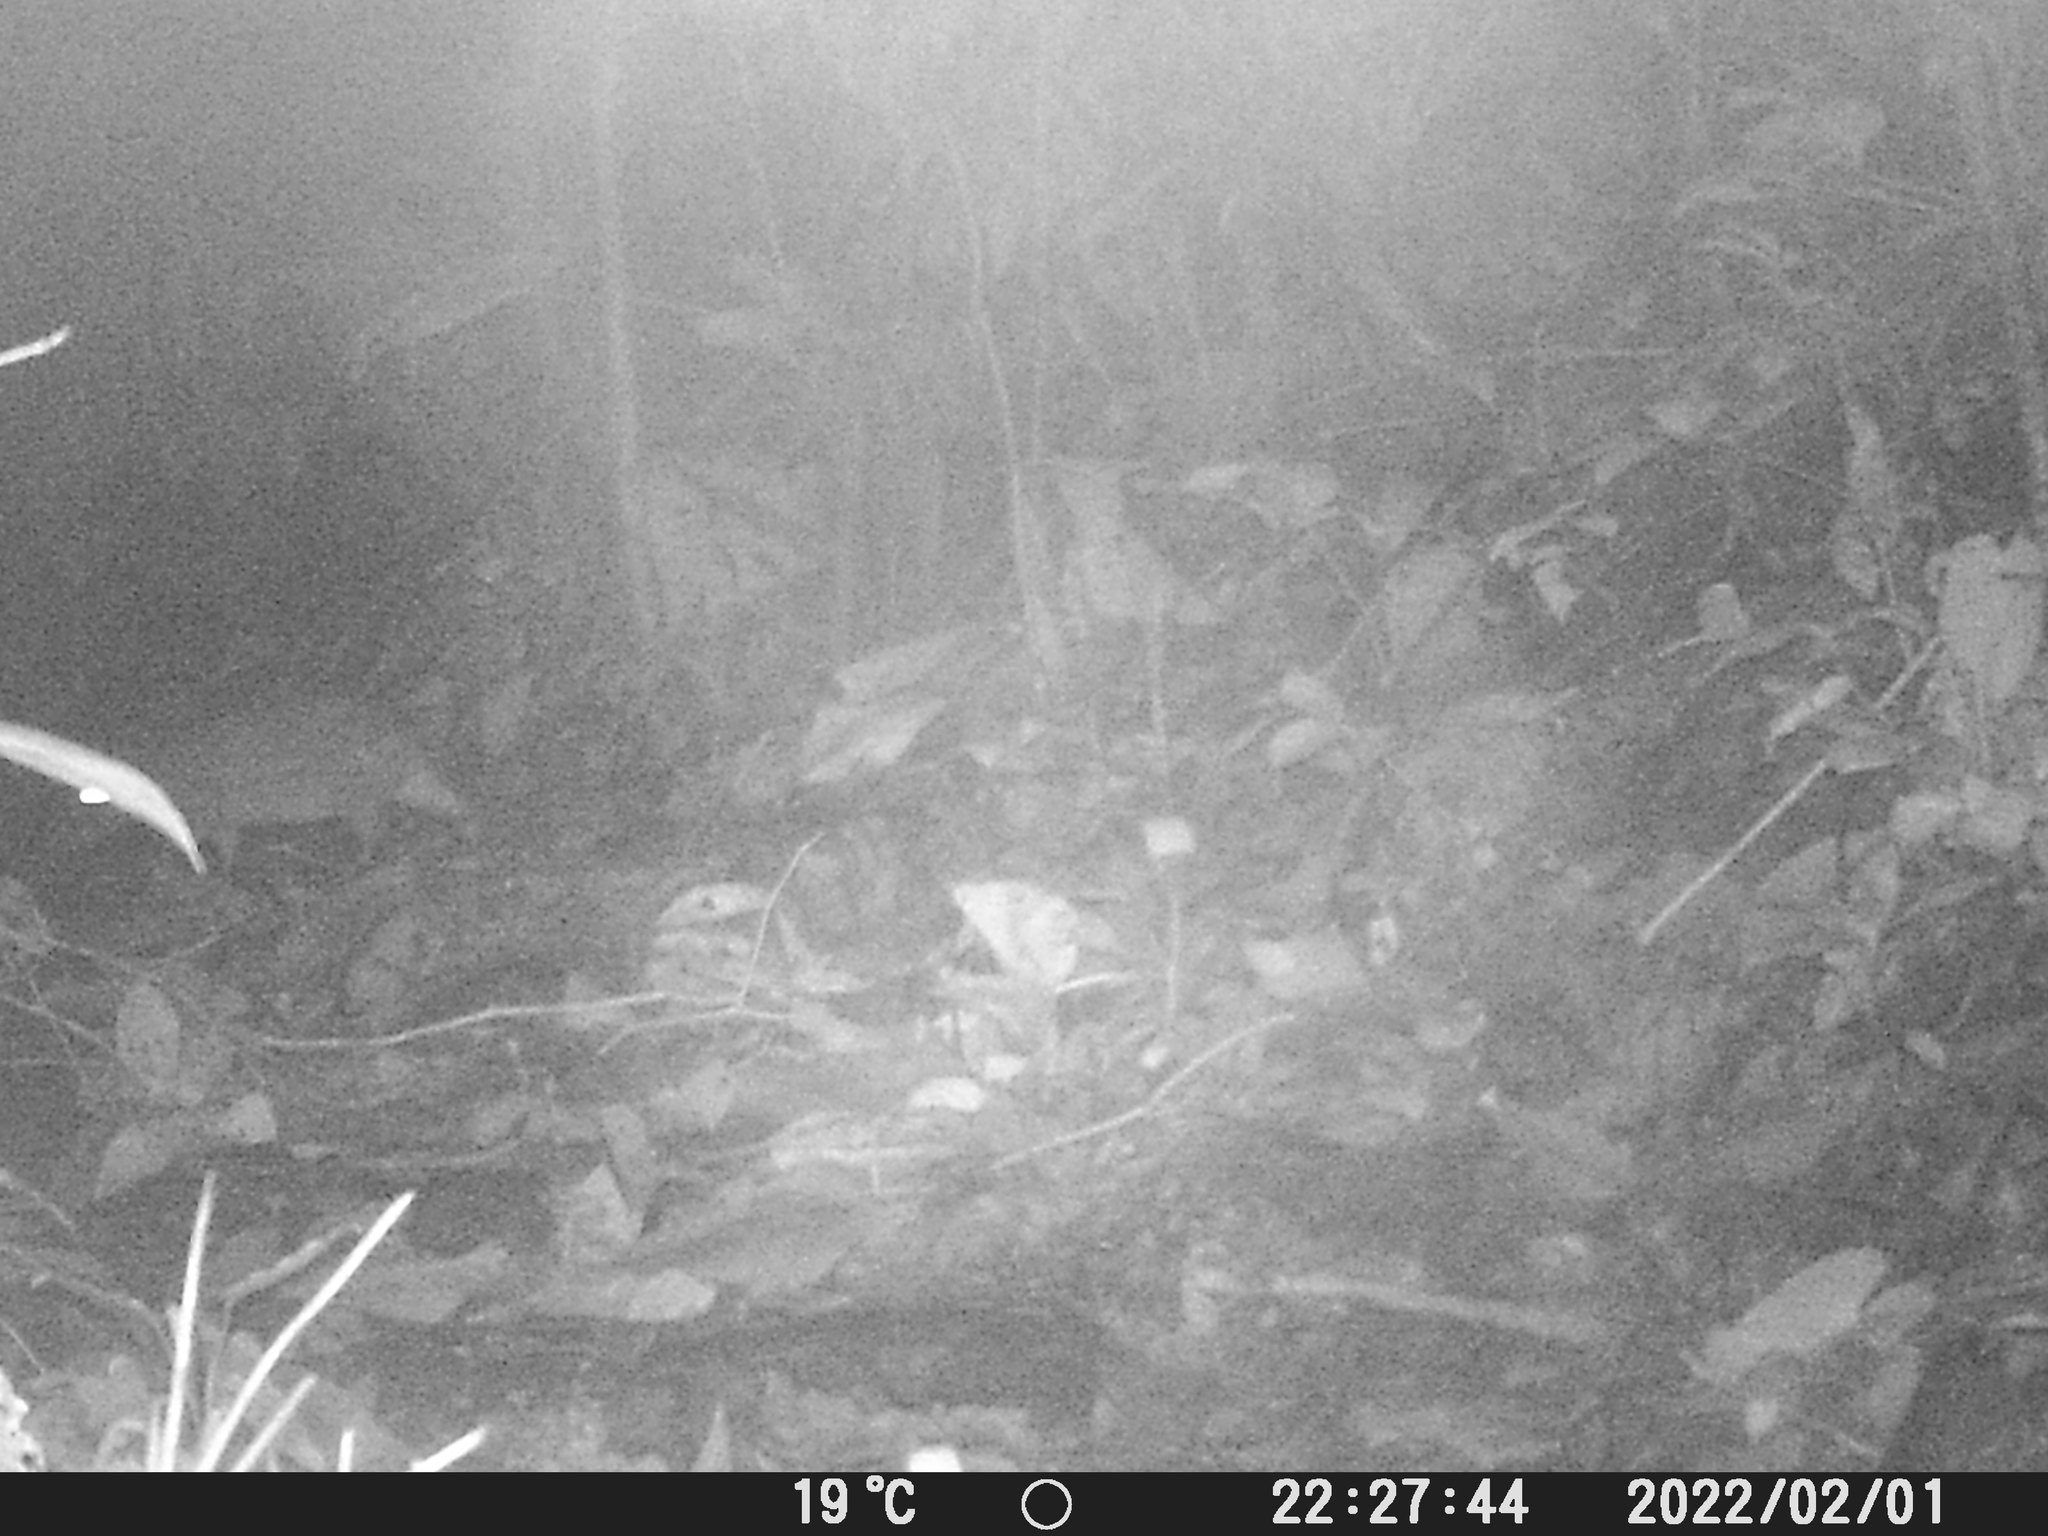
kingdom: Animalia
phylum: Chordata
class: Mammalia
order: Rodentia
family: Cuniculidae
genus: Cuniculus
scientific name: Cuniculus paca
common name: Lowland paca
